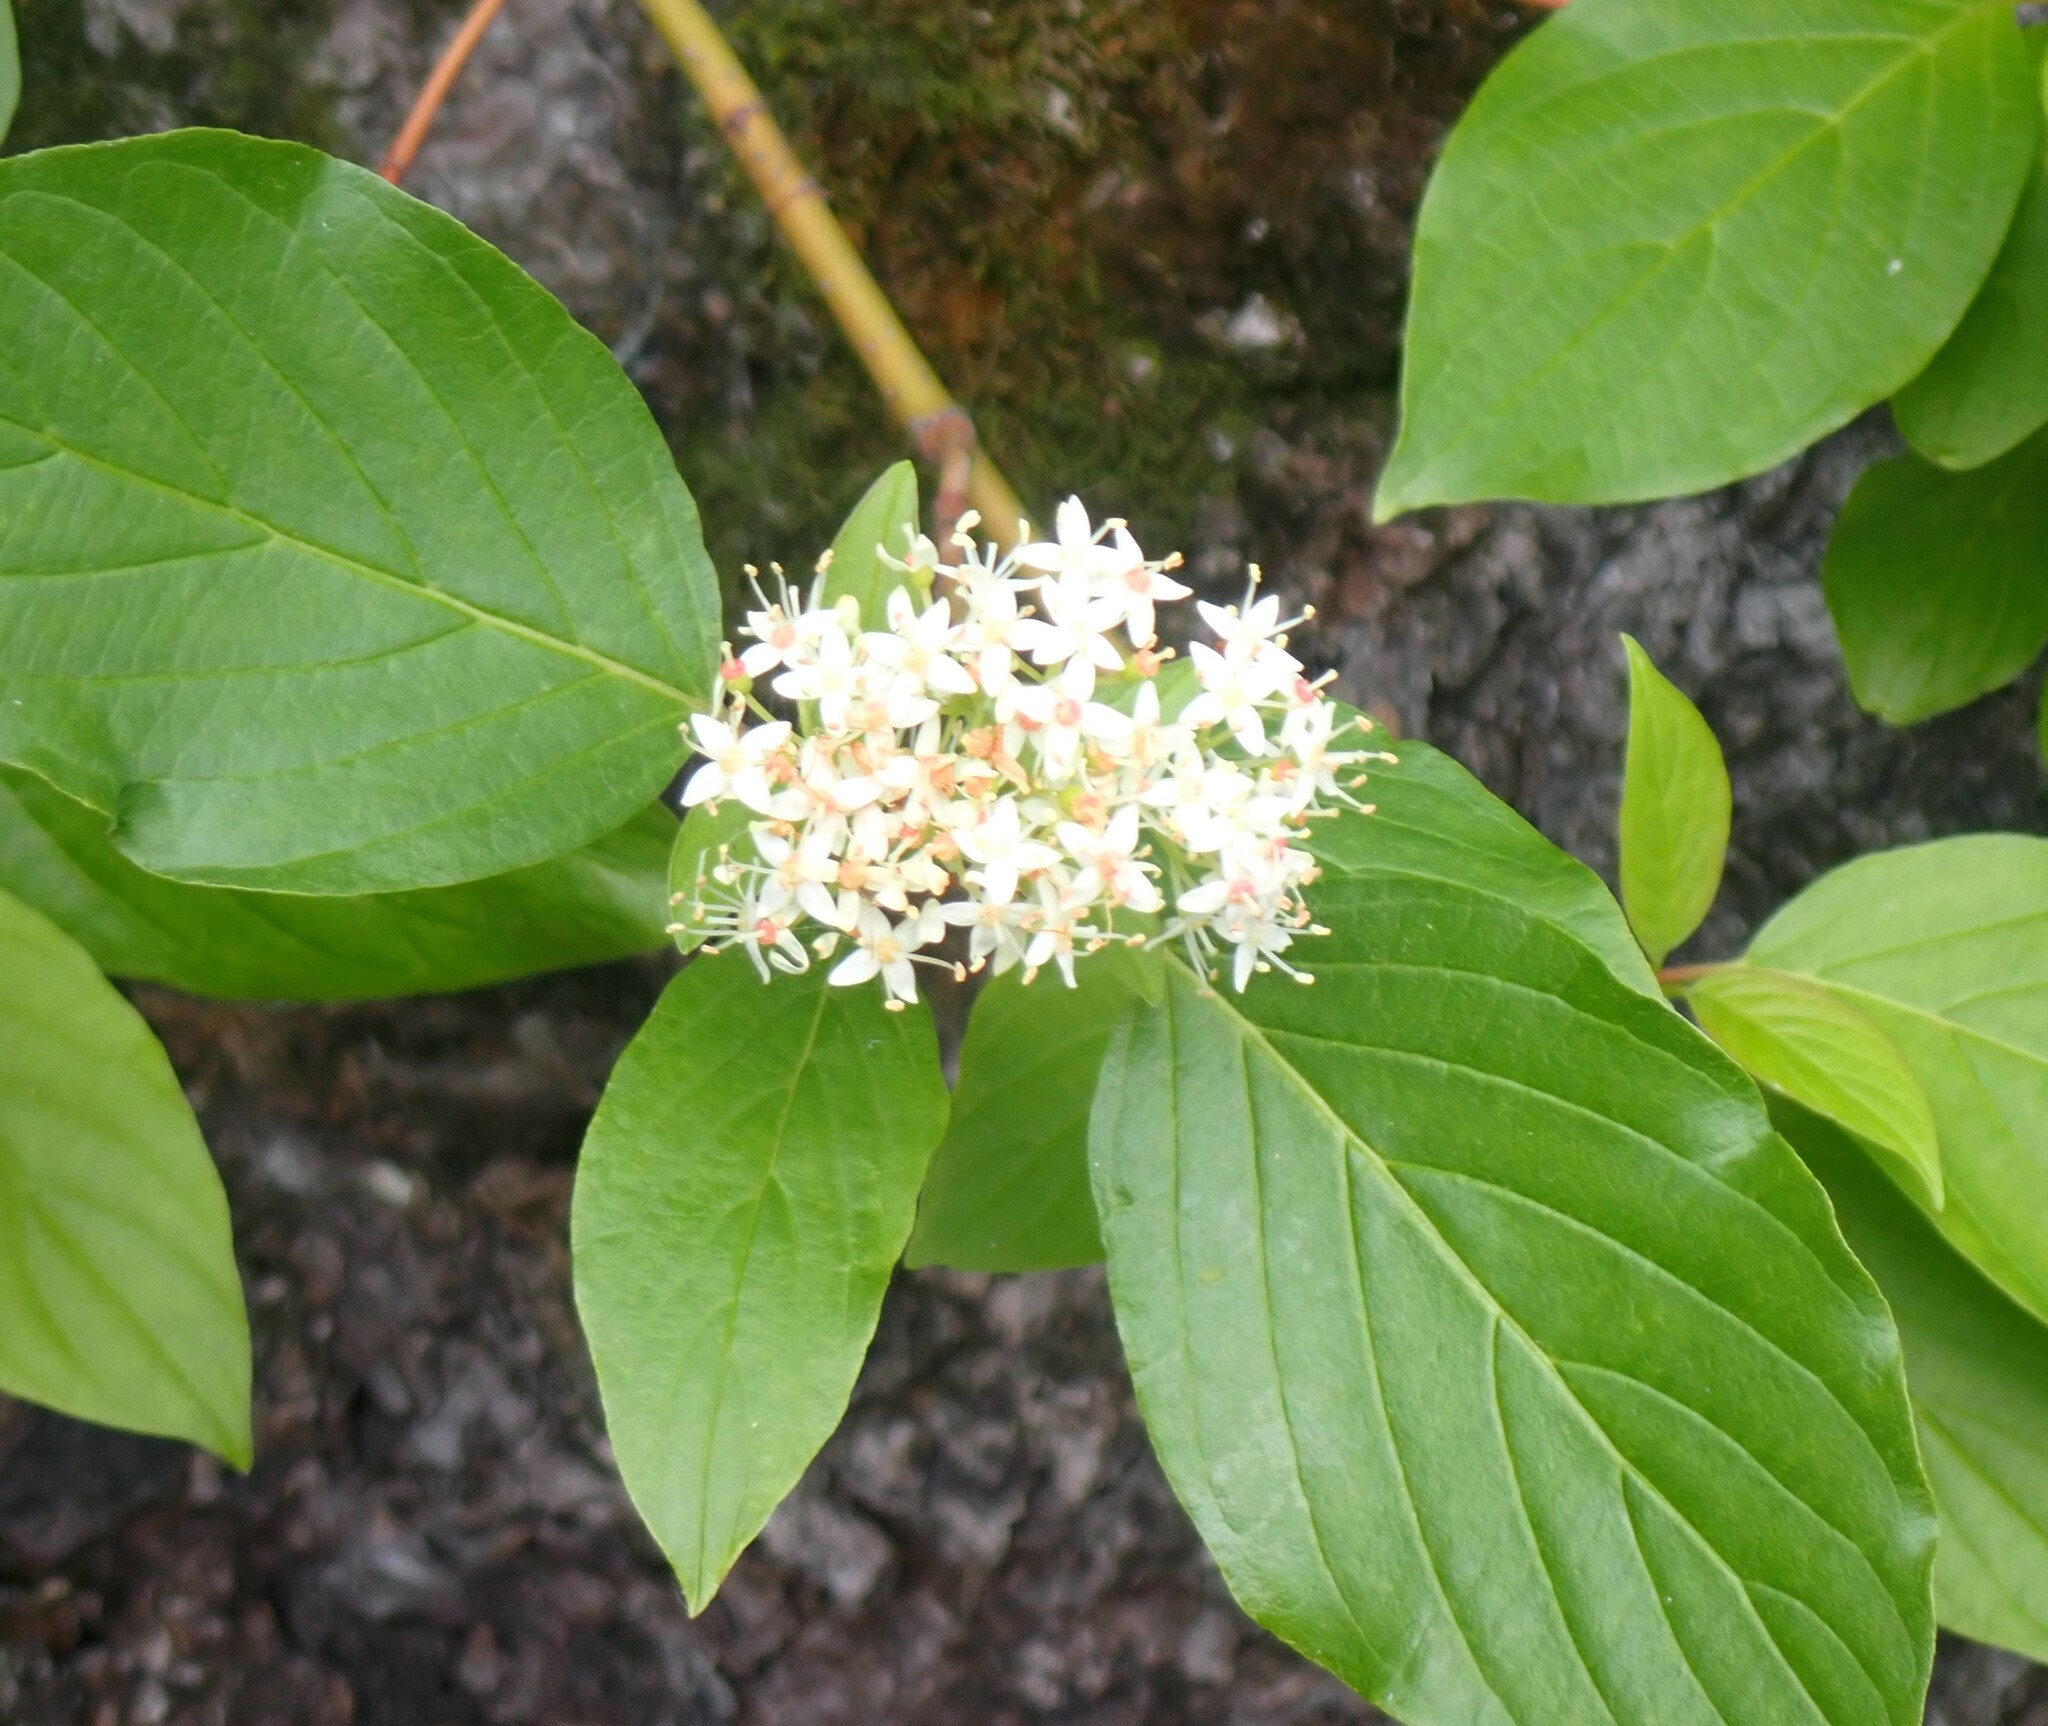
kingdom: Plantae
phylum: Tracheophyta
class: Magnoliopsida
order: Cornales
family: Cornaceae
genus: Cornus
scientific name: Cornus sericea
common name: Red-osier dogwood
